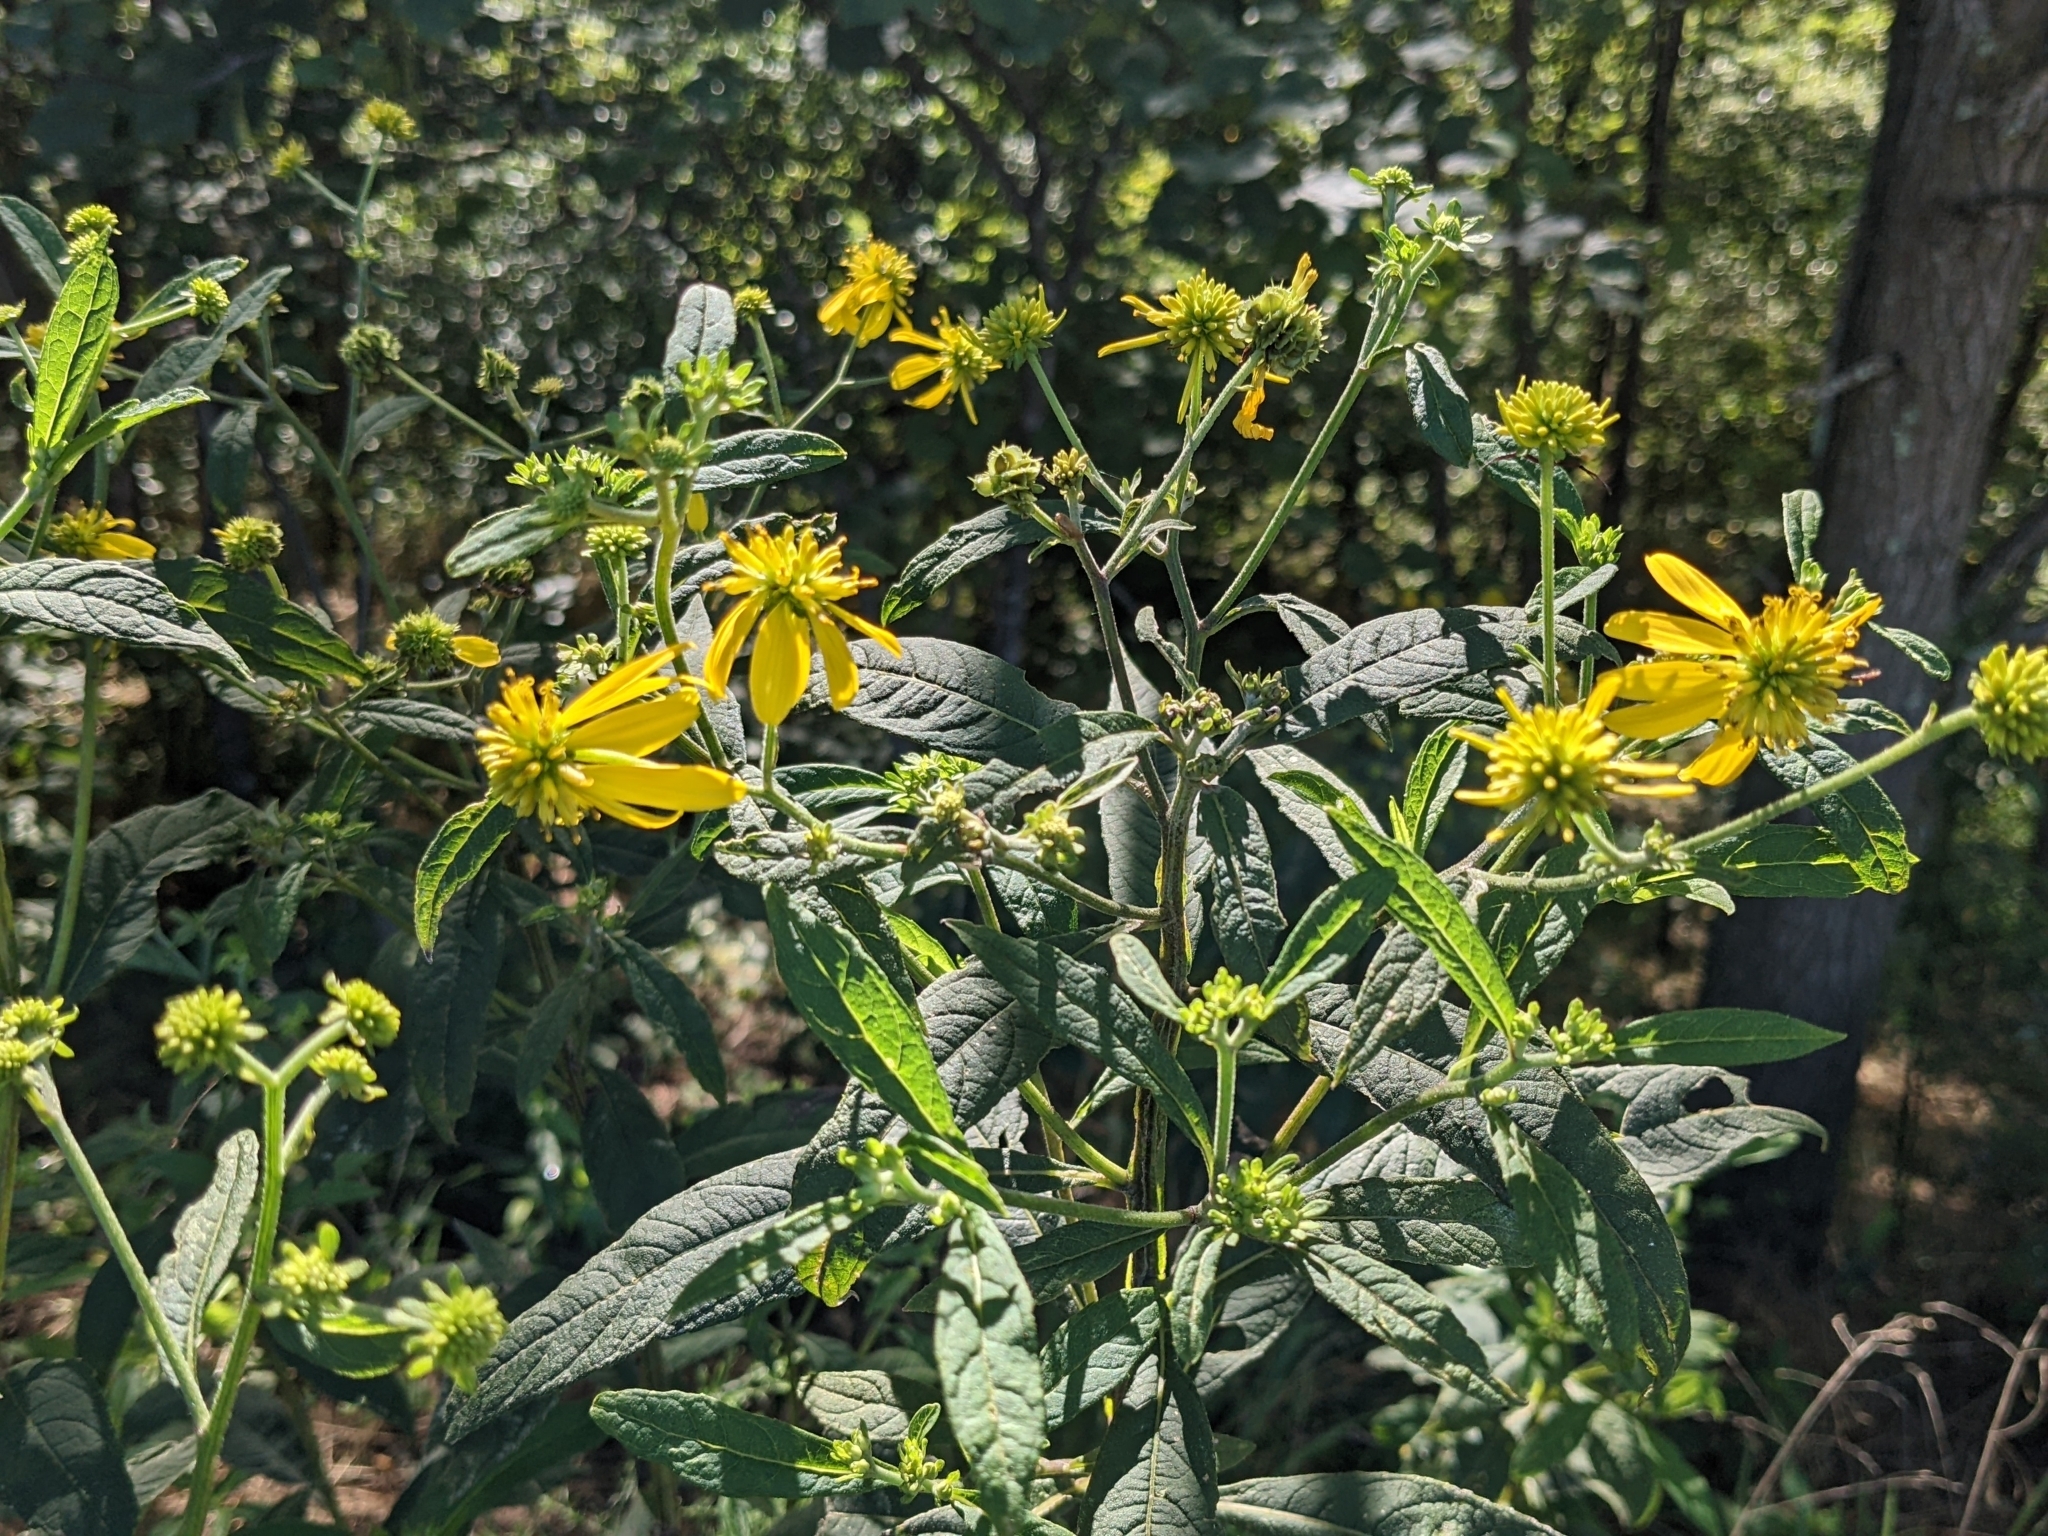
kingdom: Plantae
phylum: Tracheophyta
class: Magnoliopsida
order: Asterales
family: Asteraceae
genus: Verbesina
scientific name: Verbesina alternifolia
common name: Wingstem
